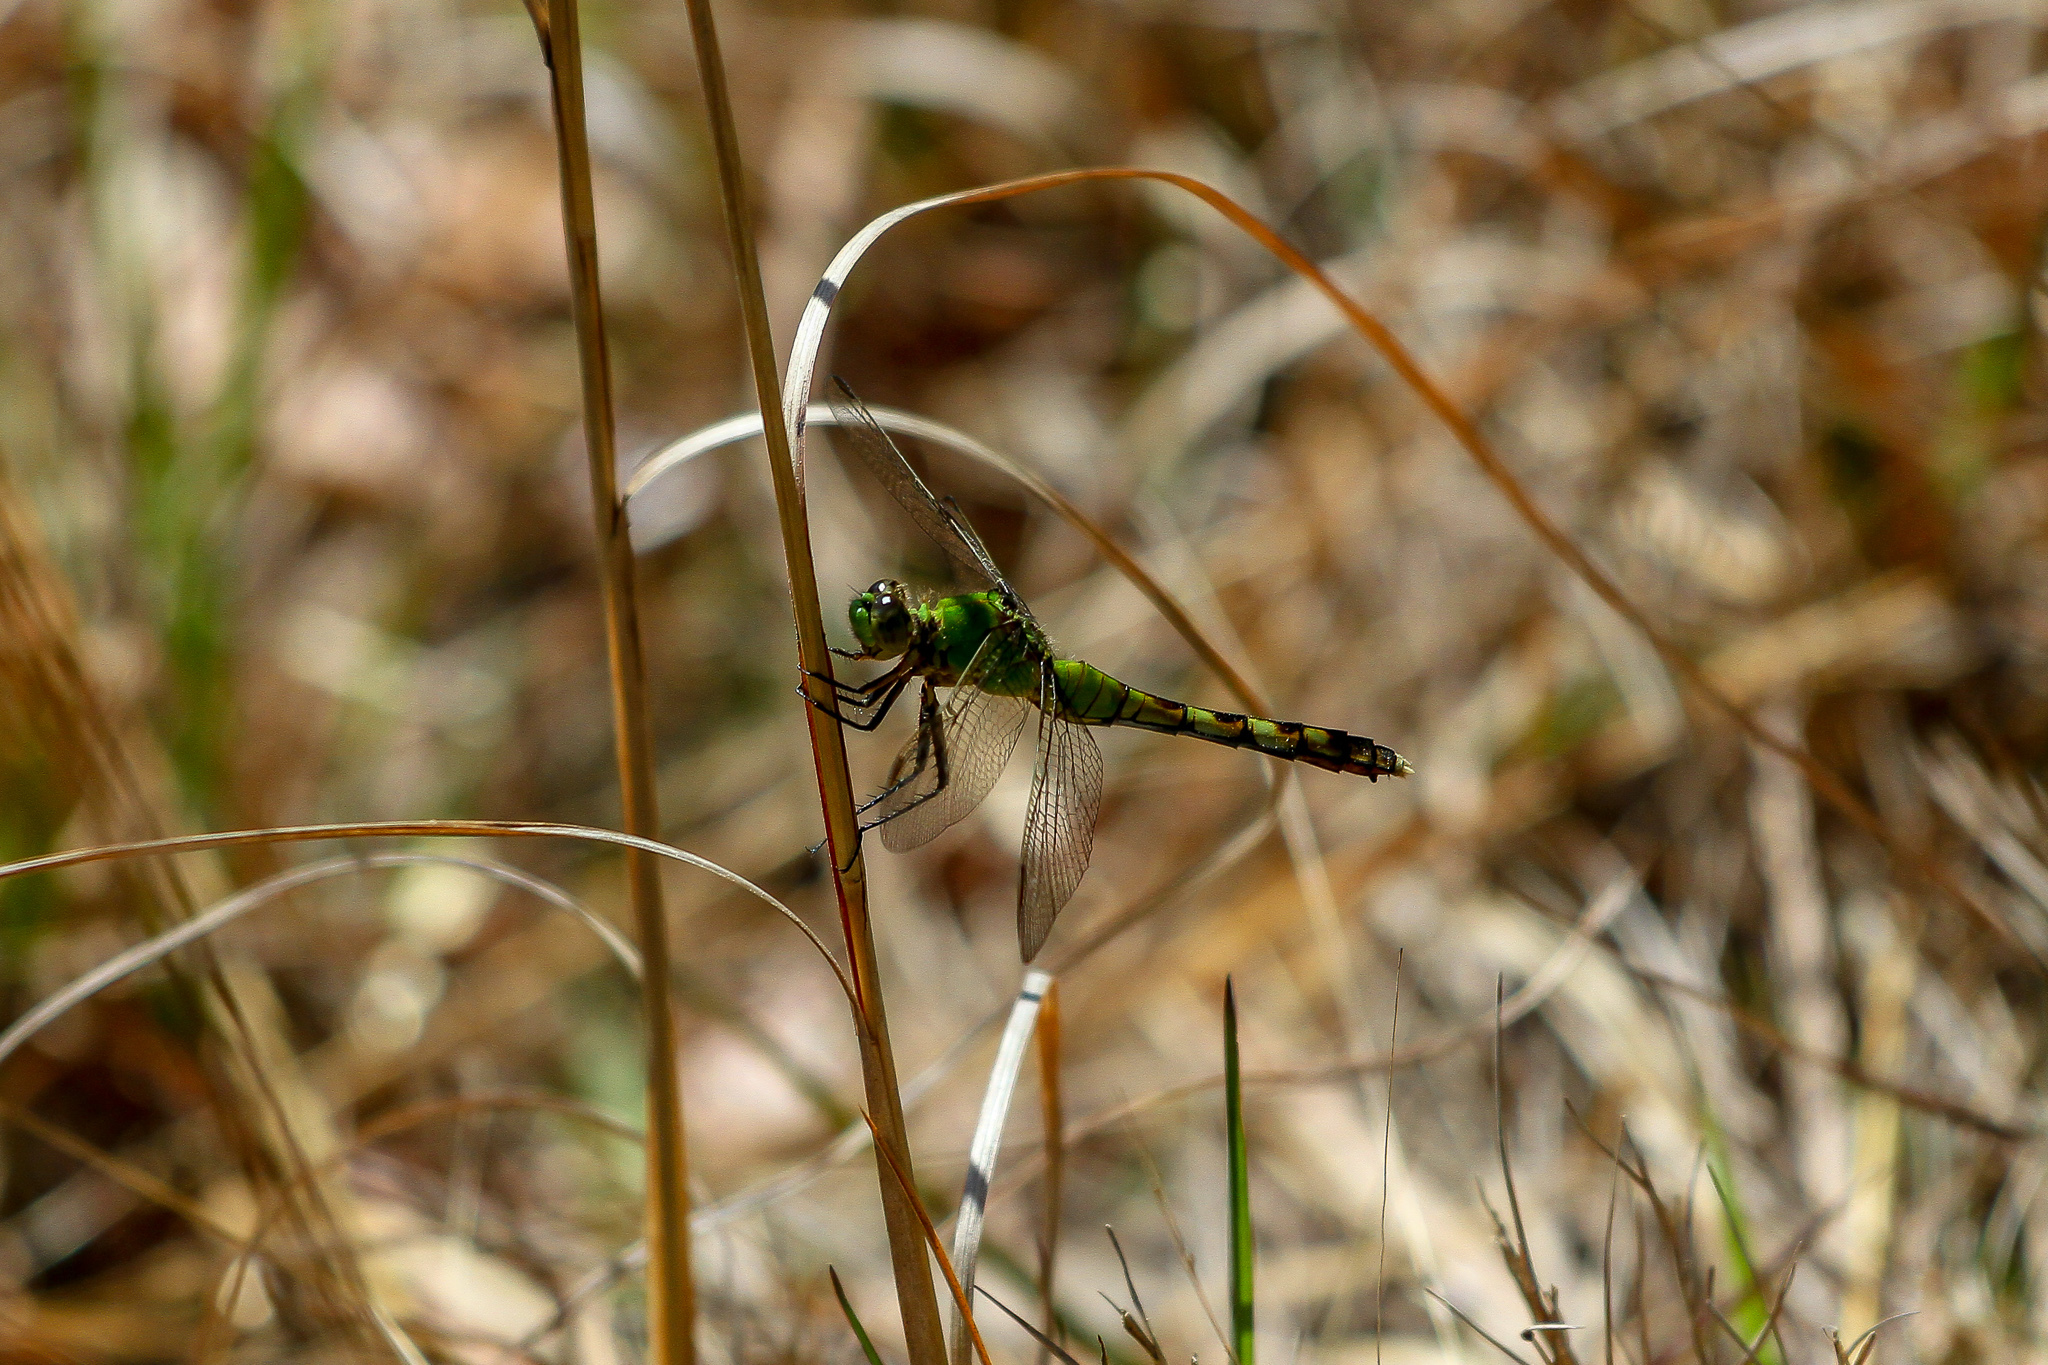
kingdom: Animalia
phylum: Arthropoda
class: Insecta
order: Odonata
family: Libellulidae
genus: Erythemis
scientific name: Erythemis simplicicollis
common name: Eastern pondhawk
